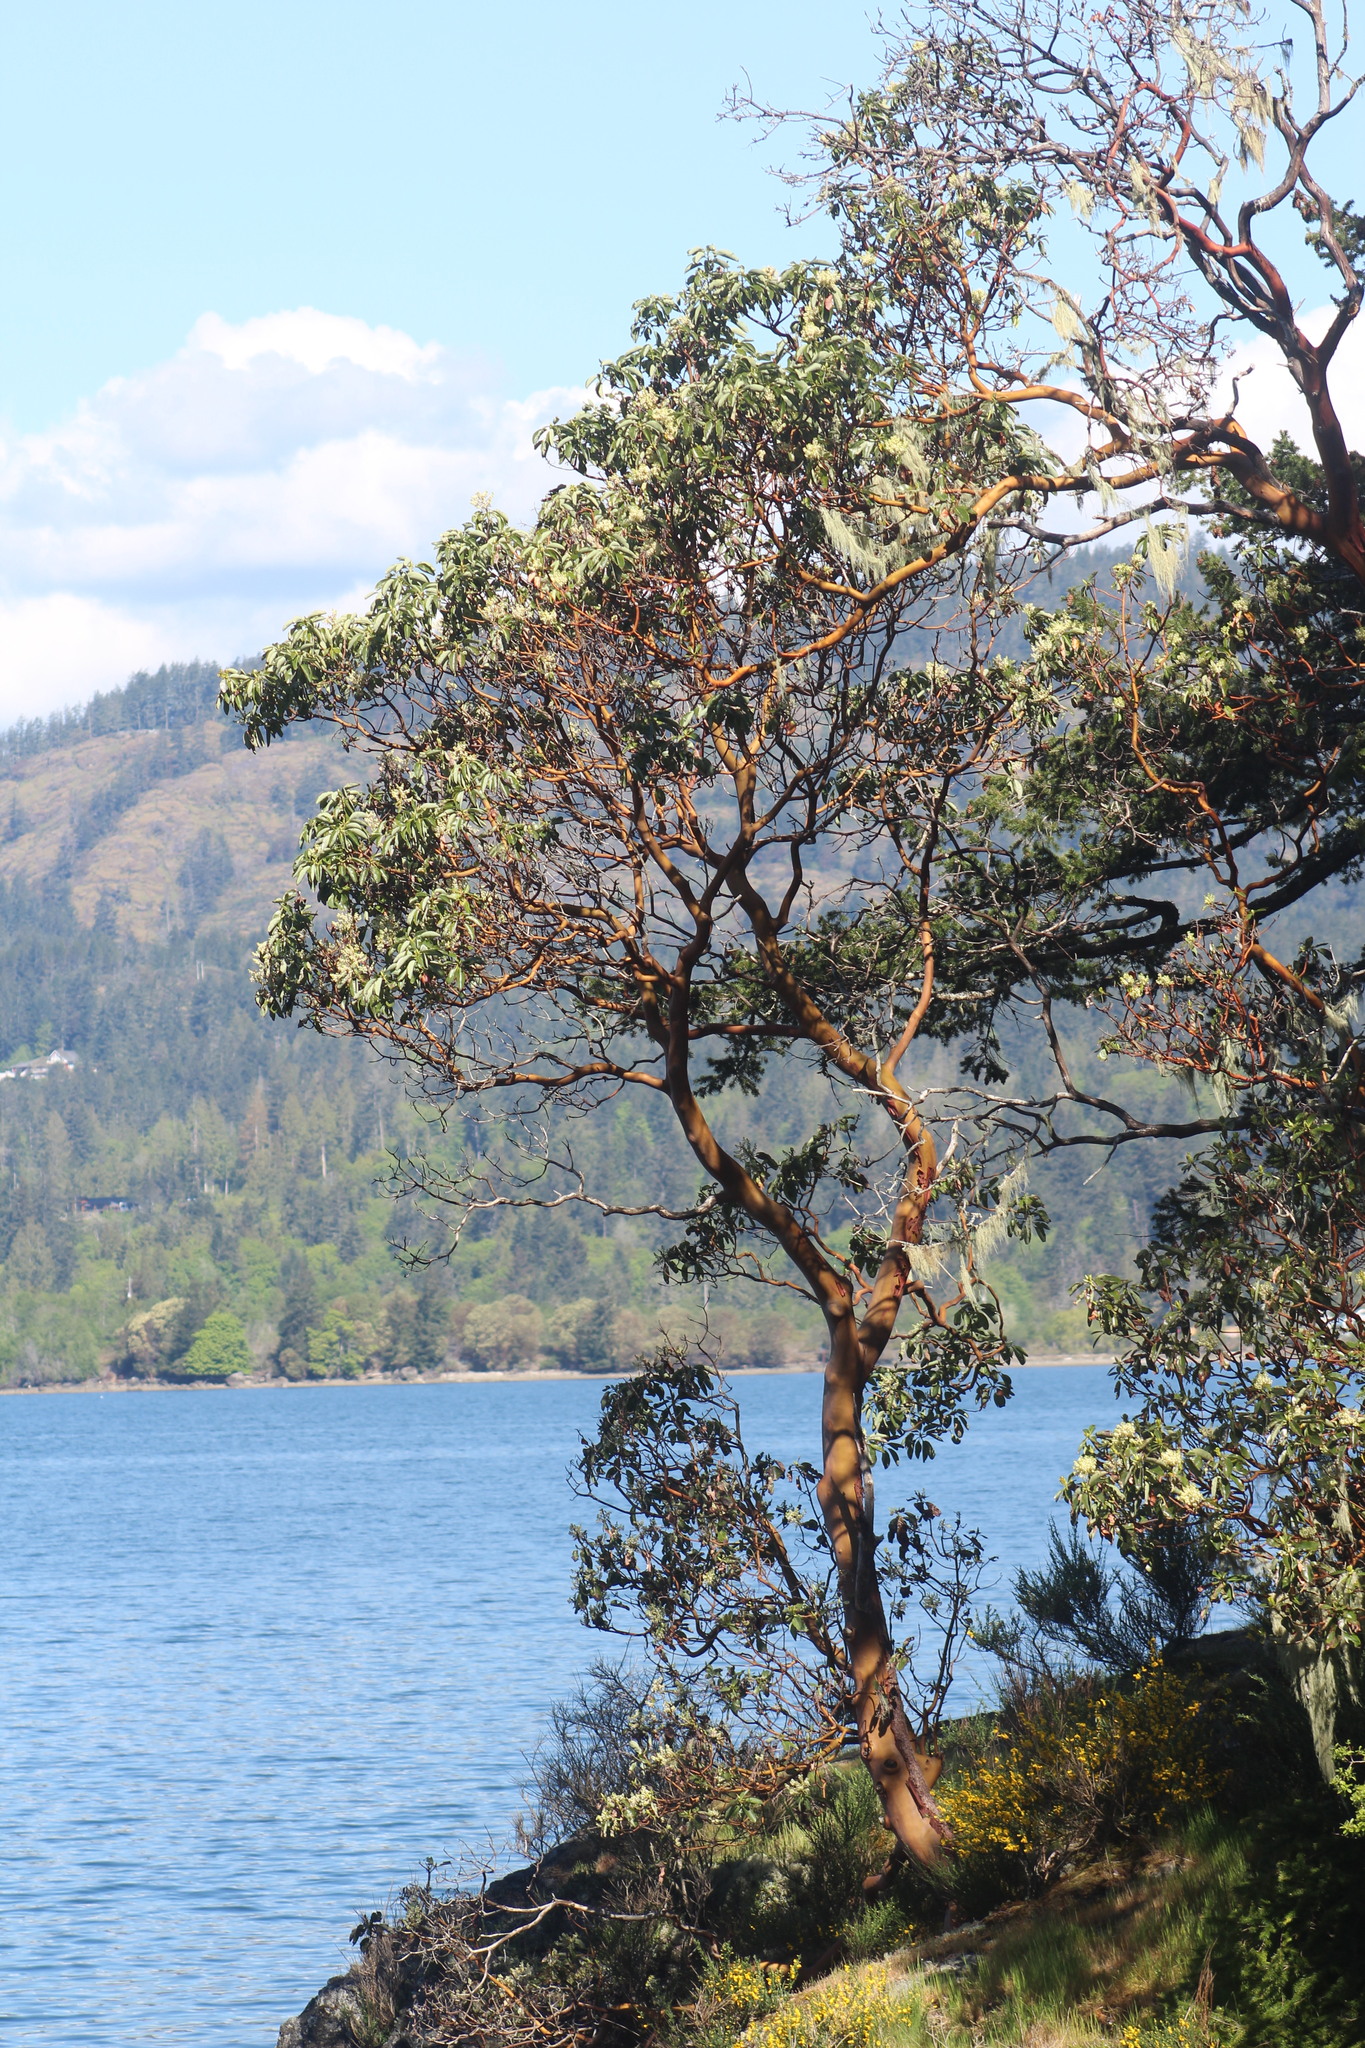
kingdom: Plantae
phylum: Tracheophyta
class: Magnoliopsida
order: Ericales
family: Ericaceae
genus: Arbutus
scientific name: Arbutus menziesii
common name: Pacific madrone
